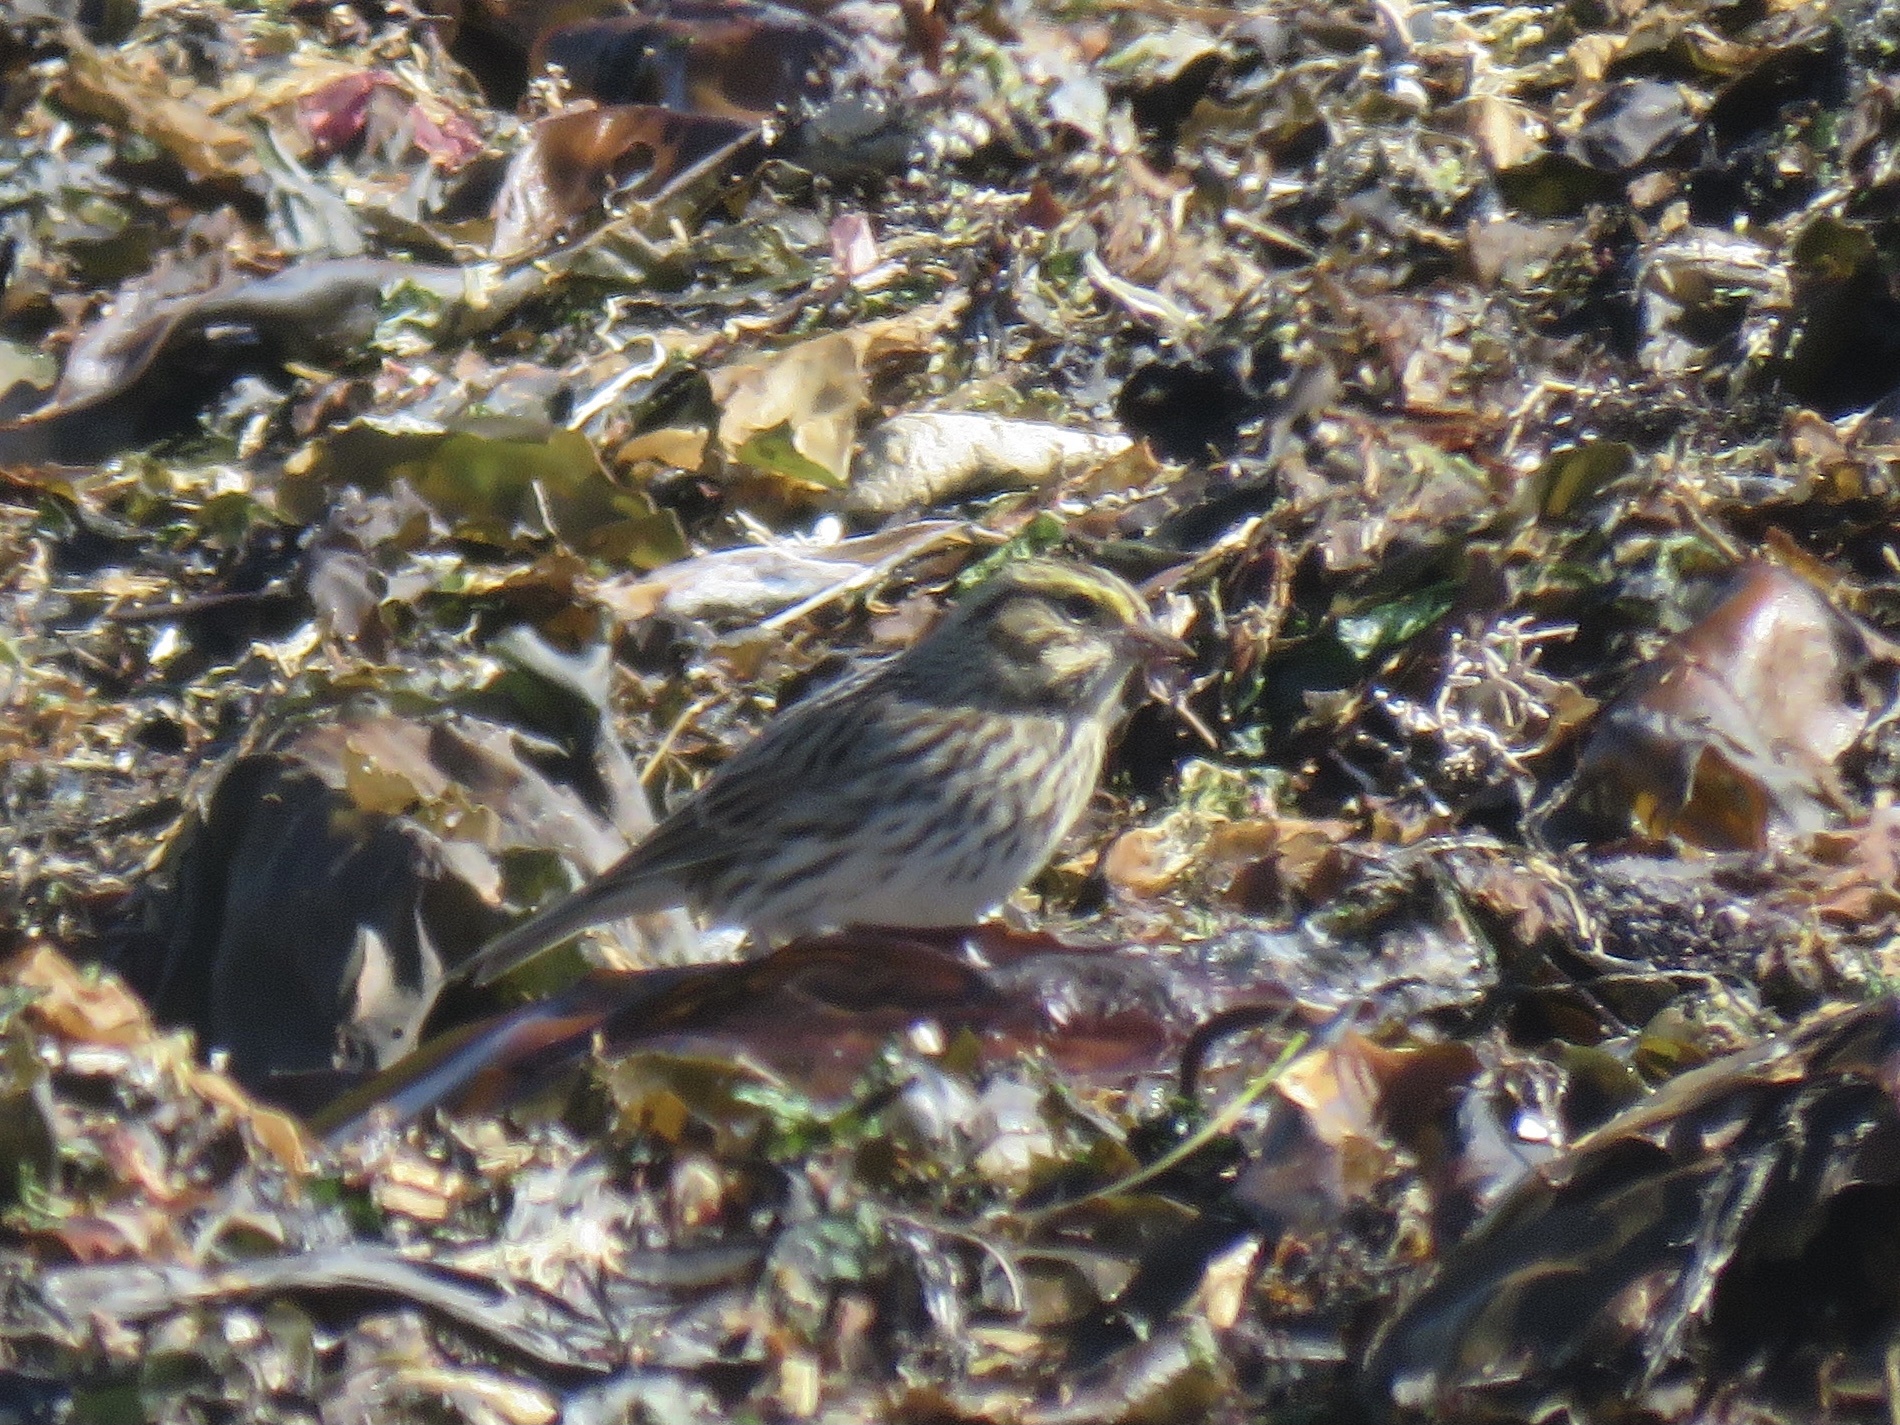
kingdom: Animalia
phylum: Chordata
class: Aves
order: Passeriformes
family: Passerellidae
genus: Passerculus
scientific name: Passerculus sandwichensis
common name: Savannah sparrow
